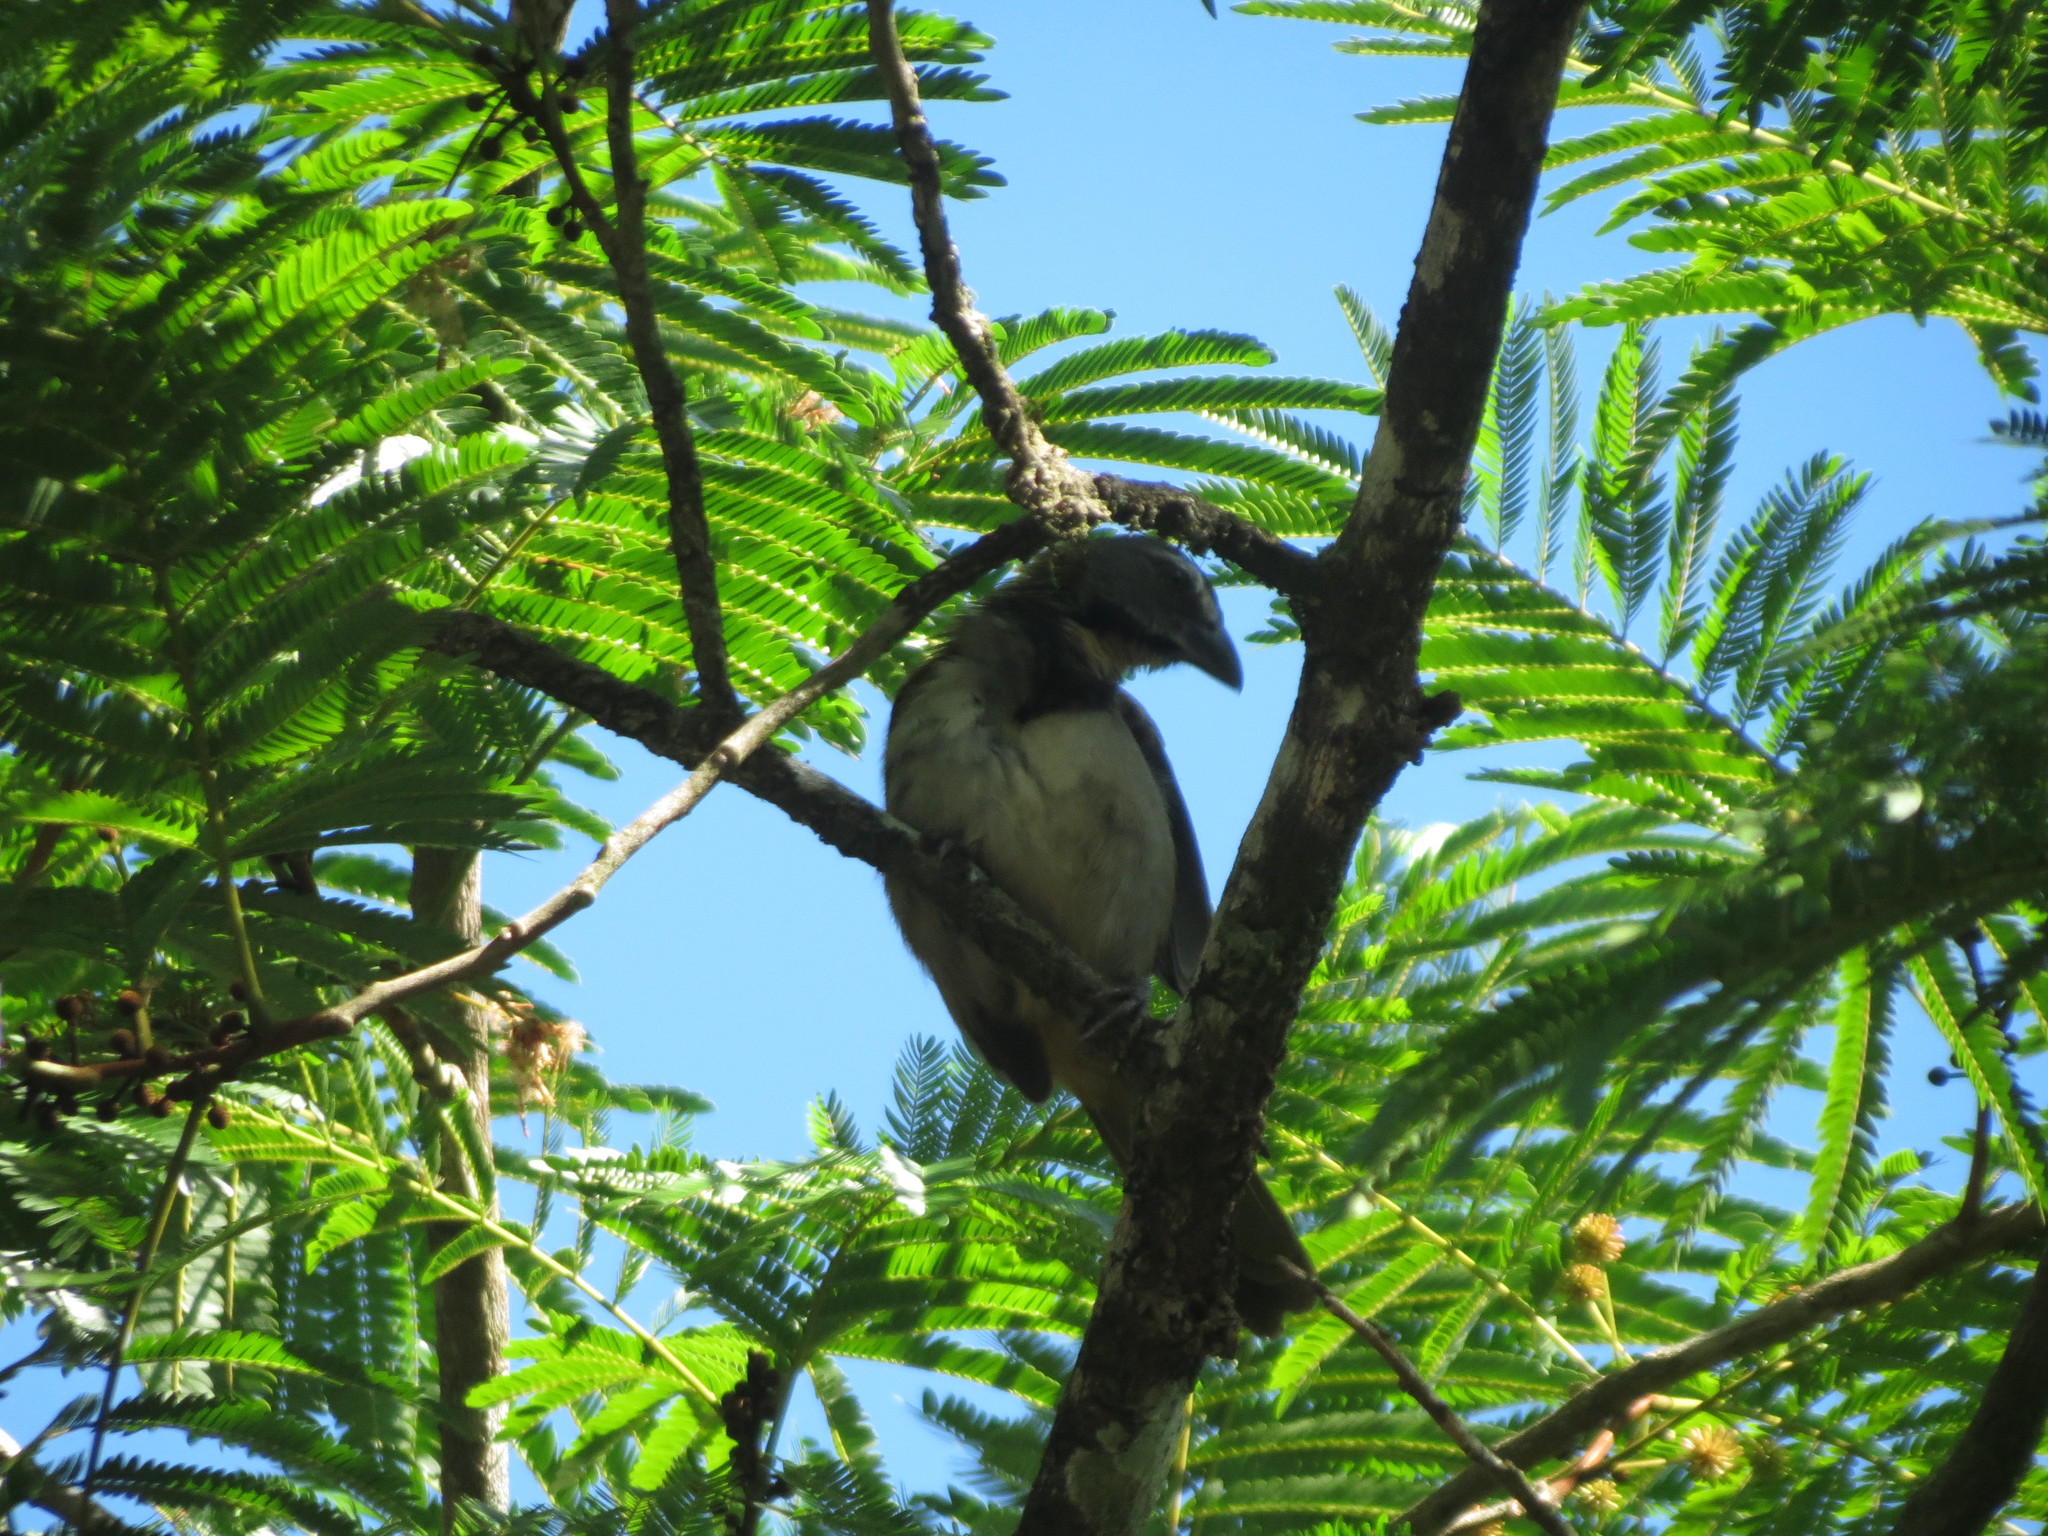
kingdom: Animalia
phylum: Chordata
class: Aves
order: Passeriformes
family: Thraupidae
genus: Saltator
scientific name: Saltator maximus
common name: Buff-throated saltator
